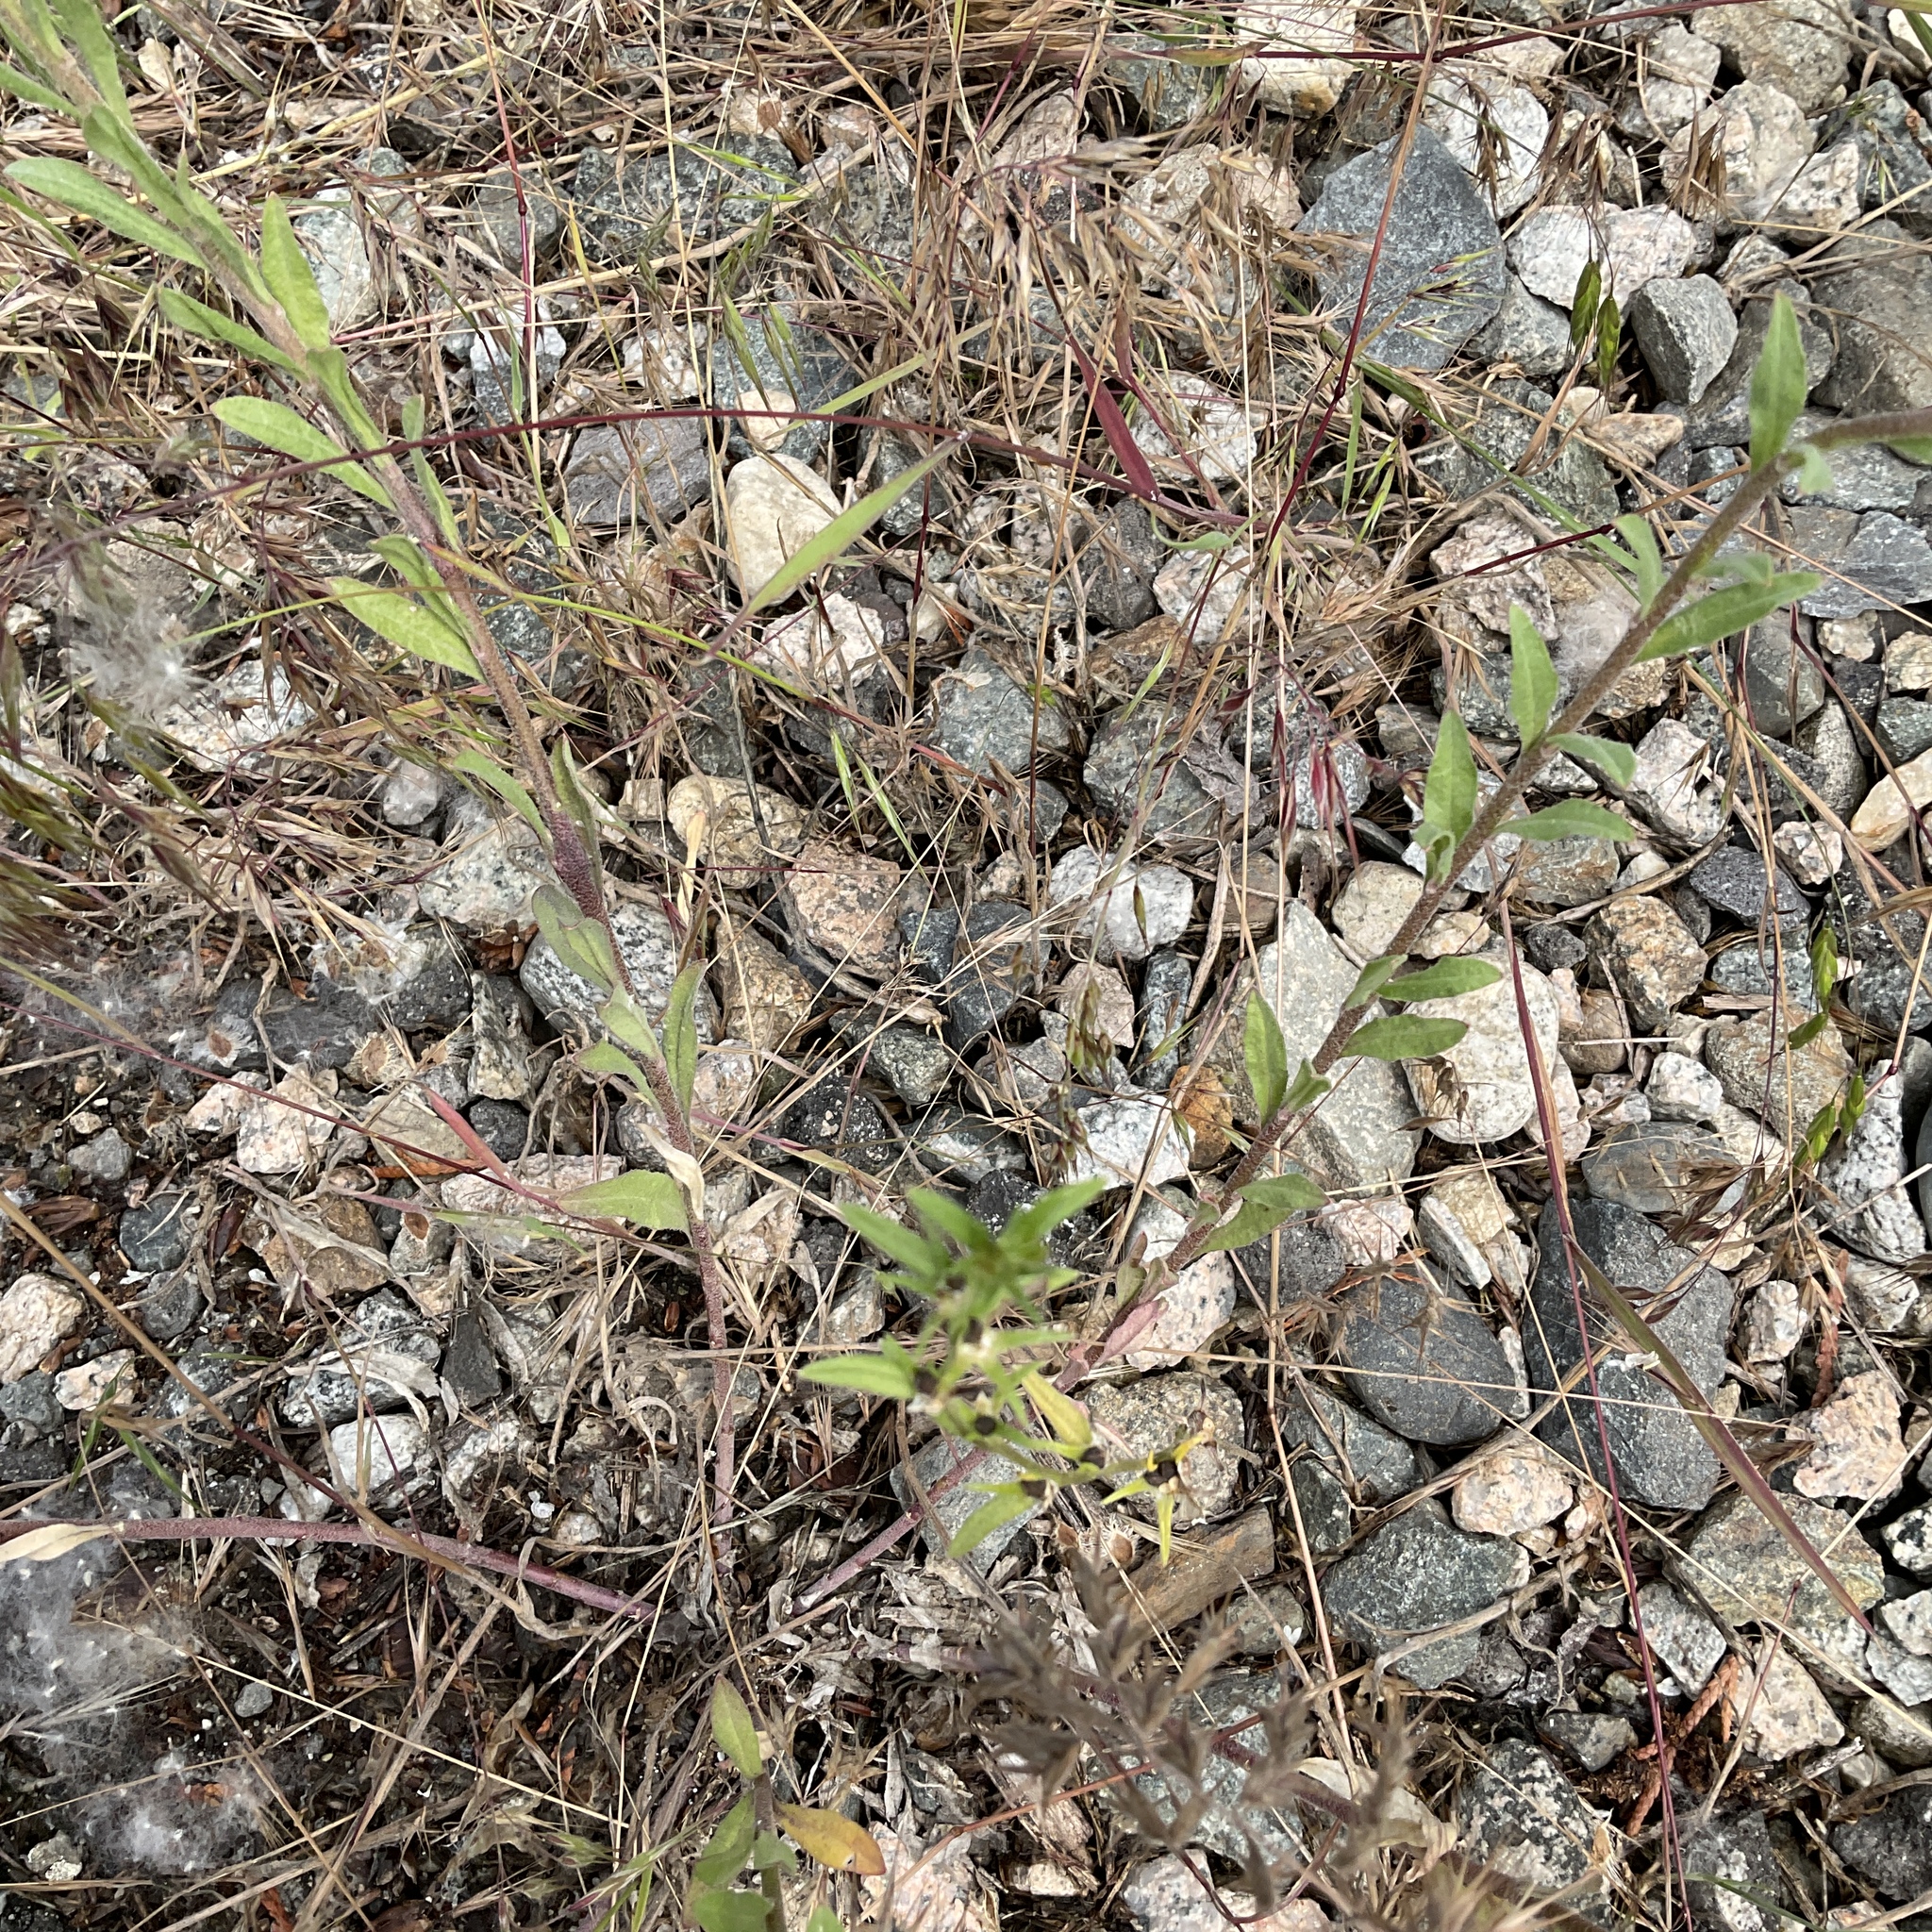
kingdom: Plantae
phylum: Tracheophyta
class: Magnoliopsida
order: Brassicales
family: Brassicaceae
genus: Berteroa
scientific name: Berteroa incana
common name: Hoary alison
